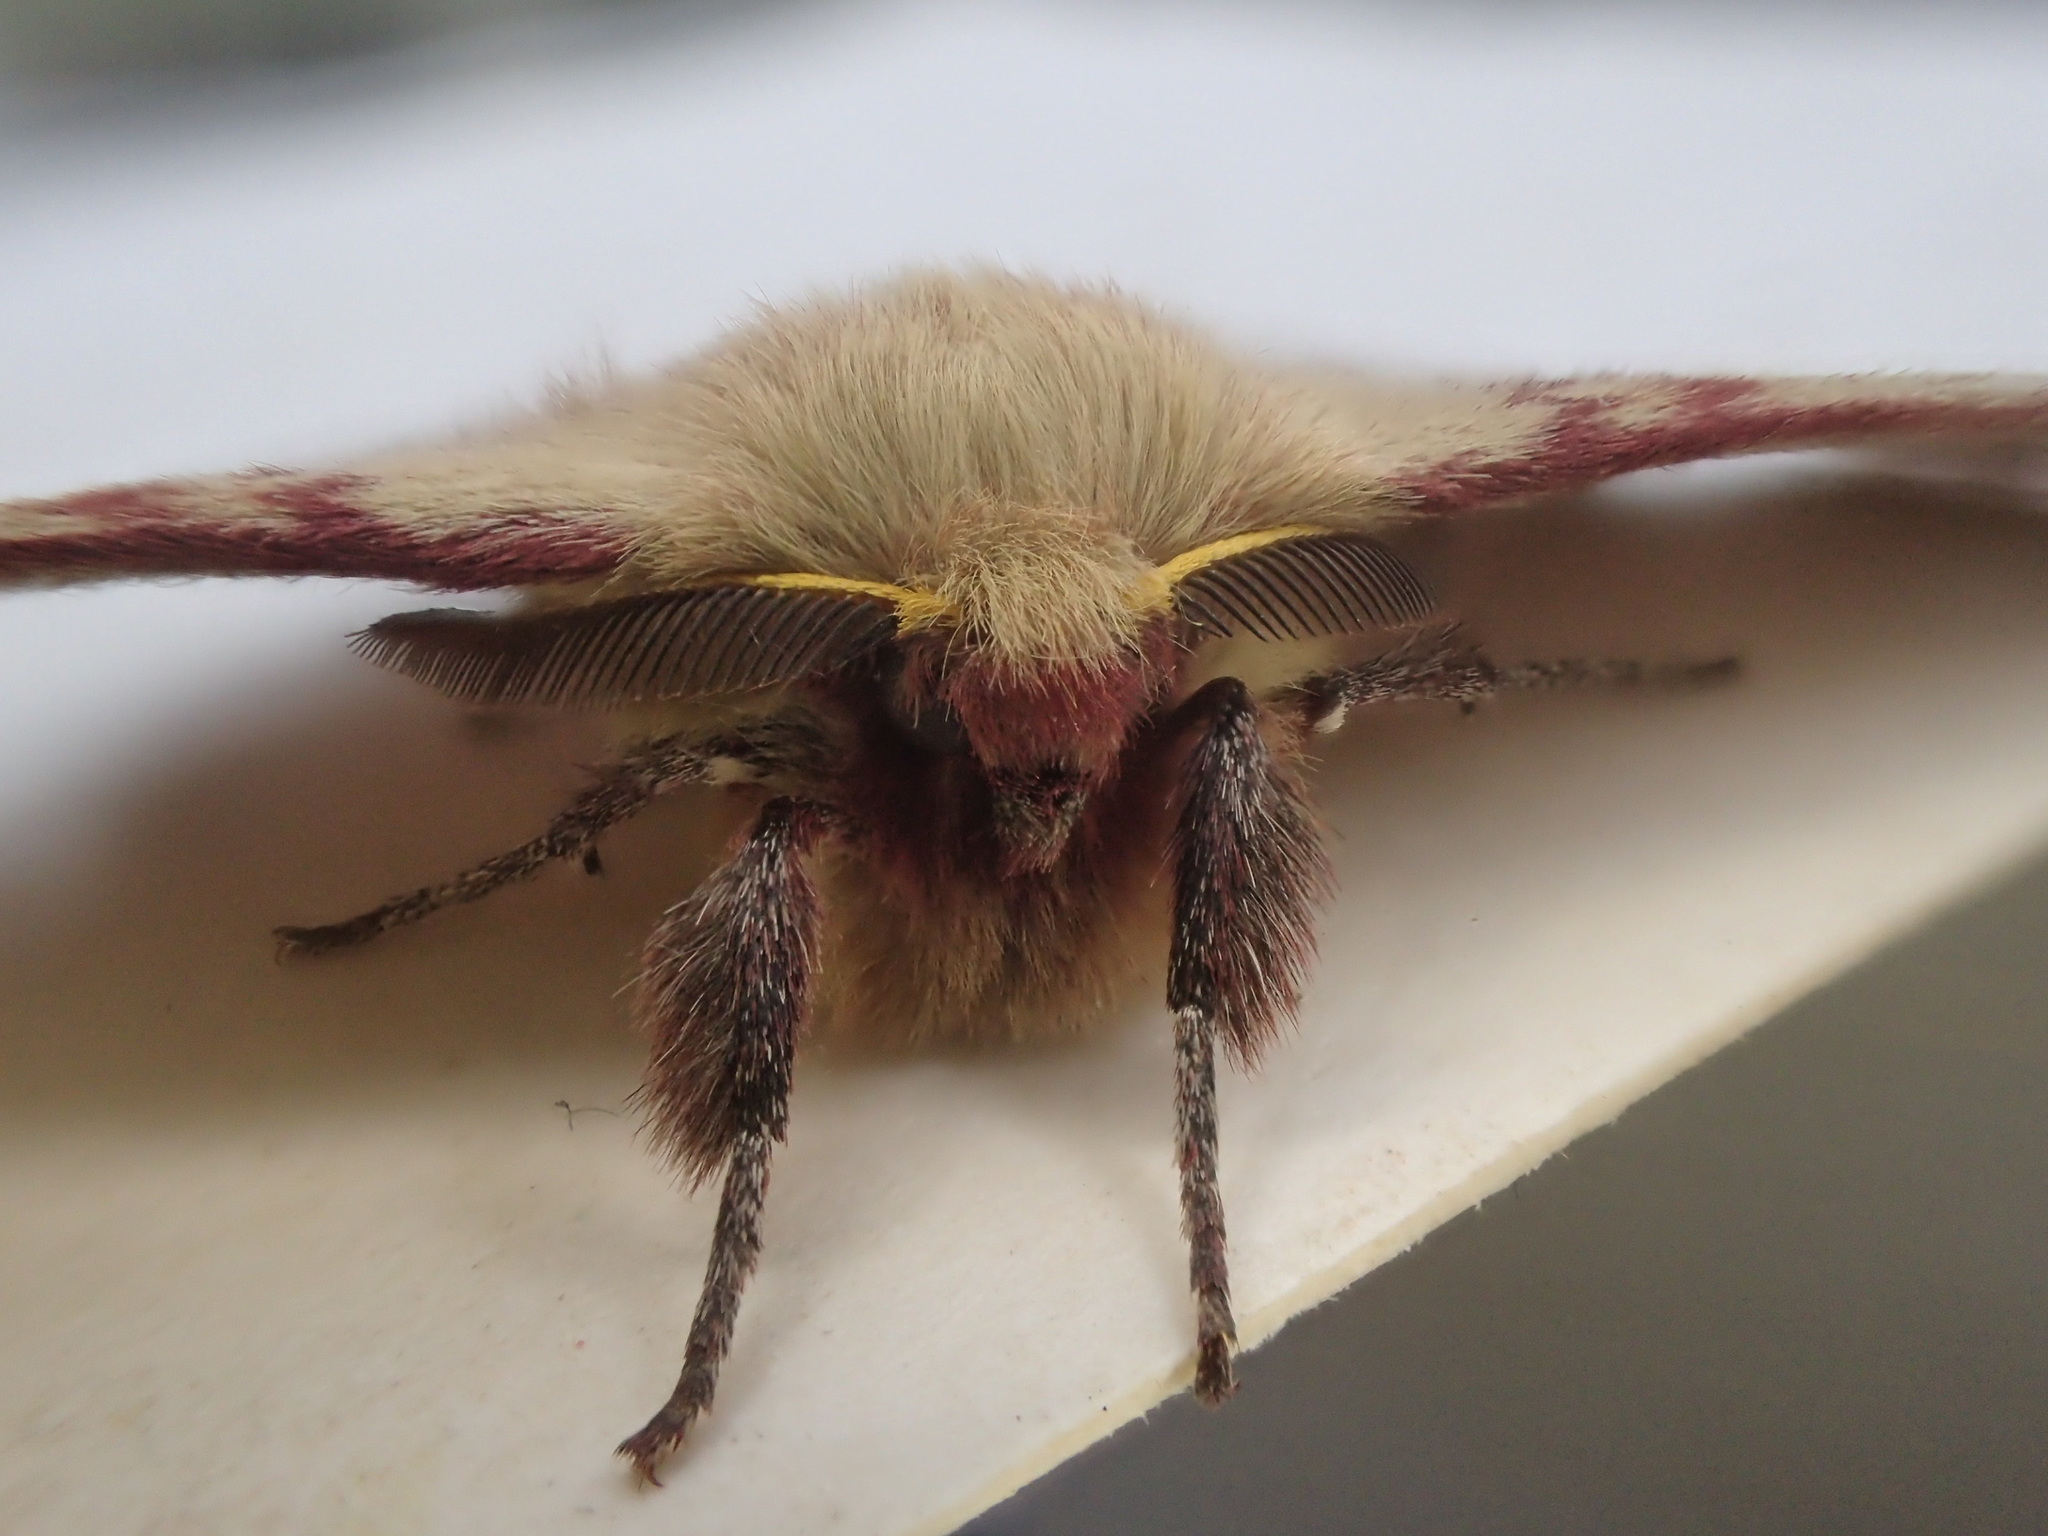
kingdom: Animalia
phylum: Arthropoda
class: Insecta
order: Lepidoptera
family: Anthelidae
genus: Anthela
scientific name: Anthela acuta
